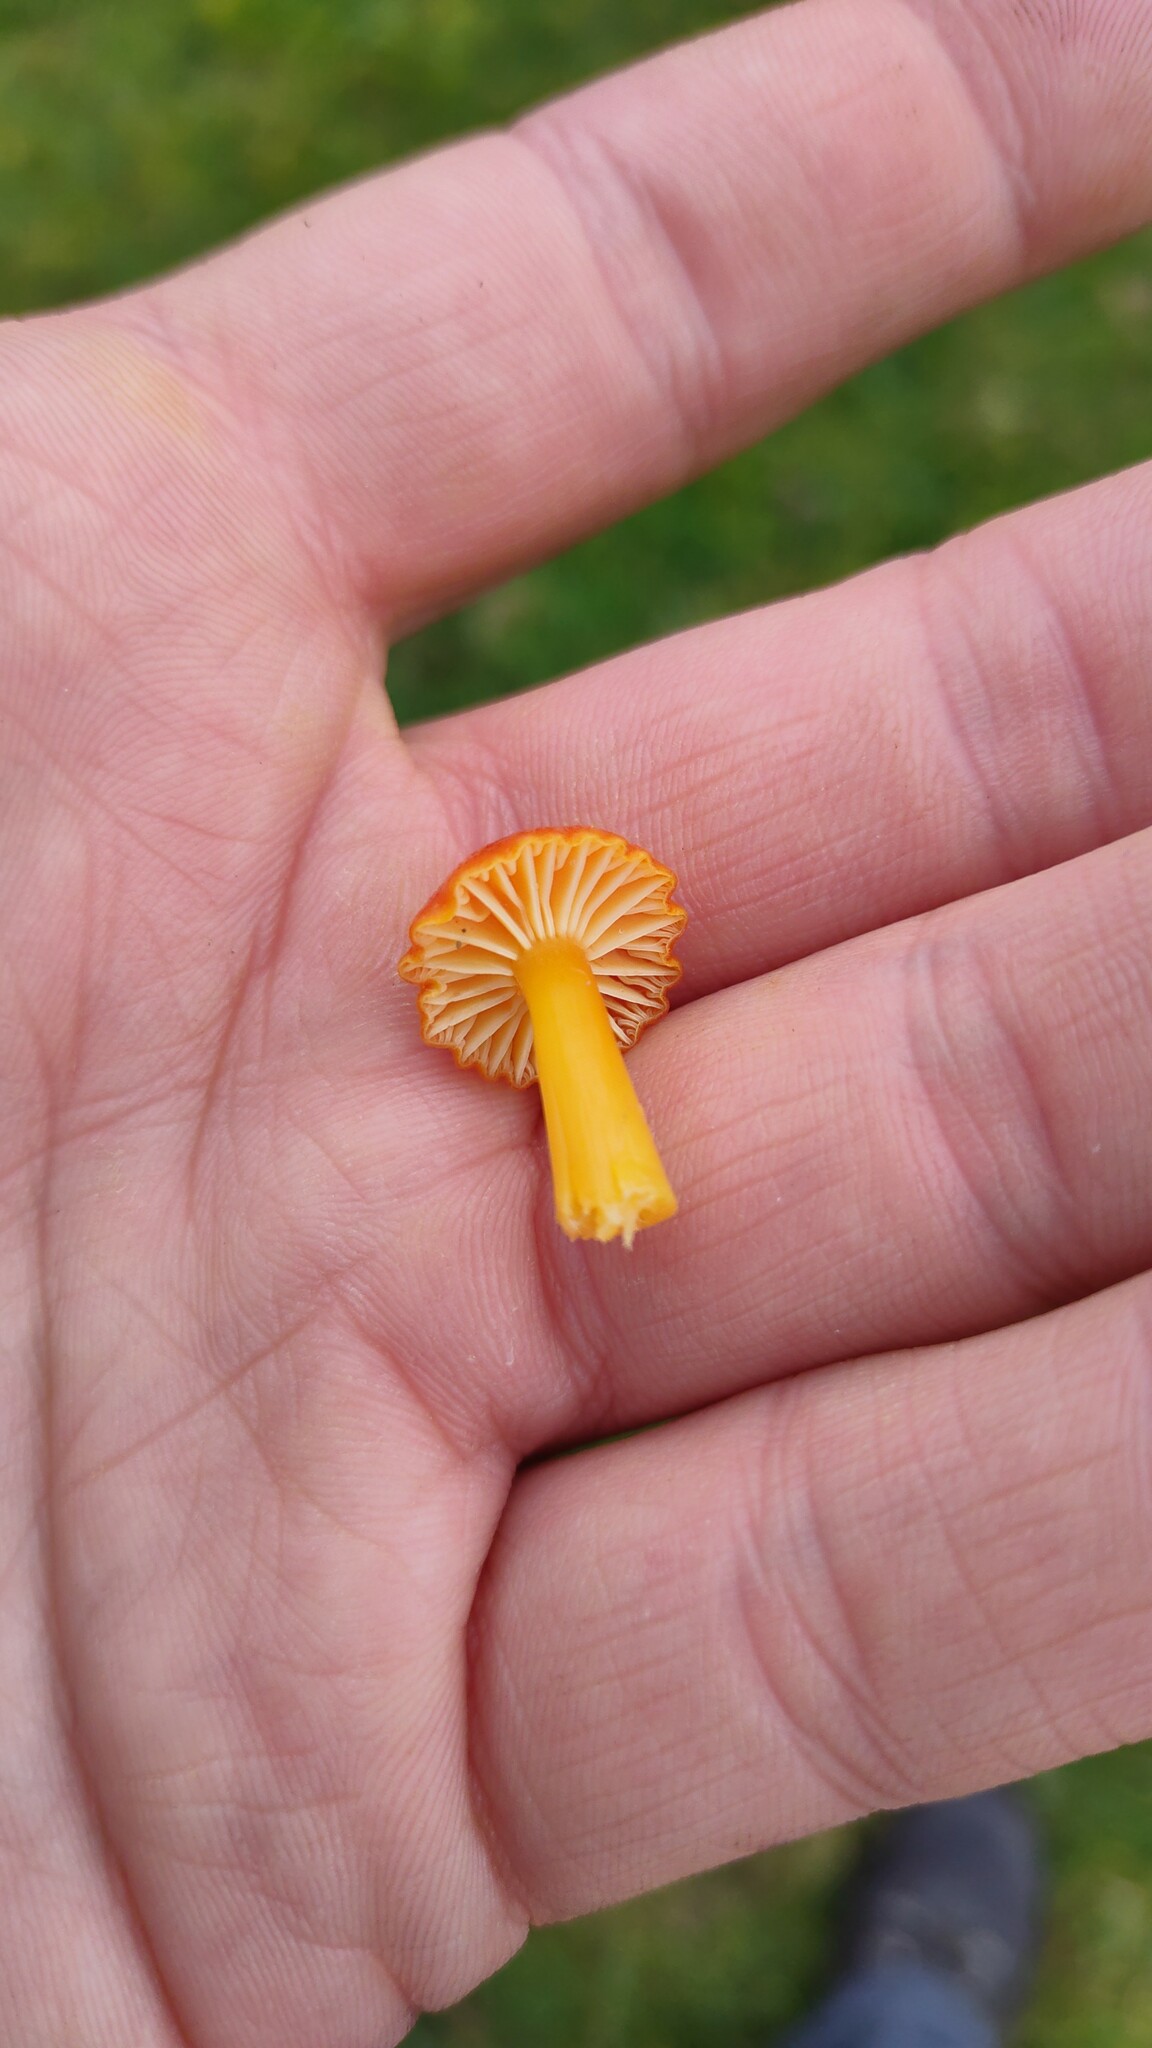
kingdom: Fungi
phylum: Basidiomycota
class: Agaricomycetes
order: Agaricales
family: Hygrophoraceae
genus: Hygrocybe
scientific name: Hygrocybe reidii
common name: Honey waxcap
